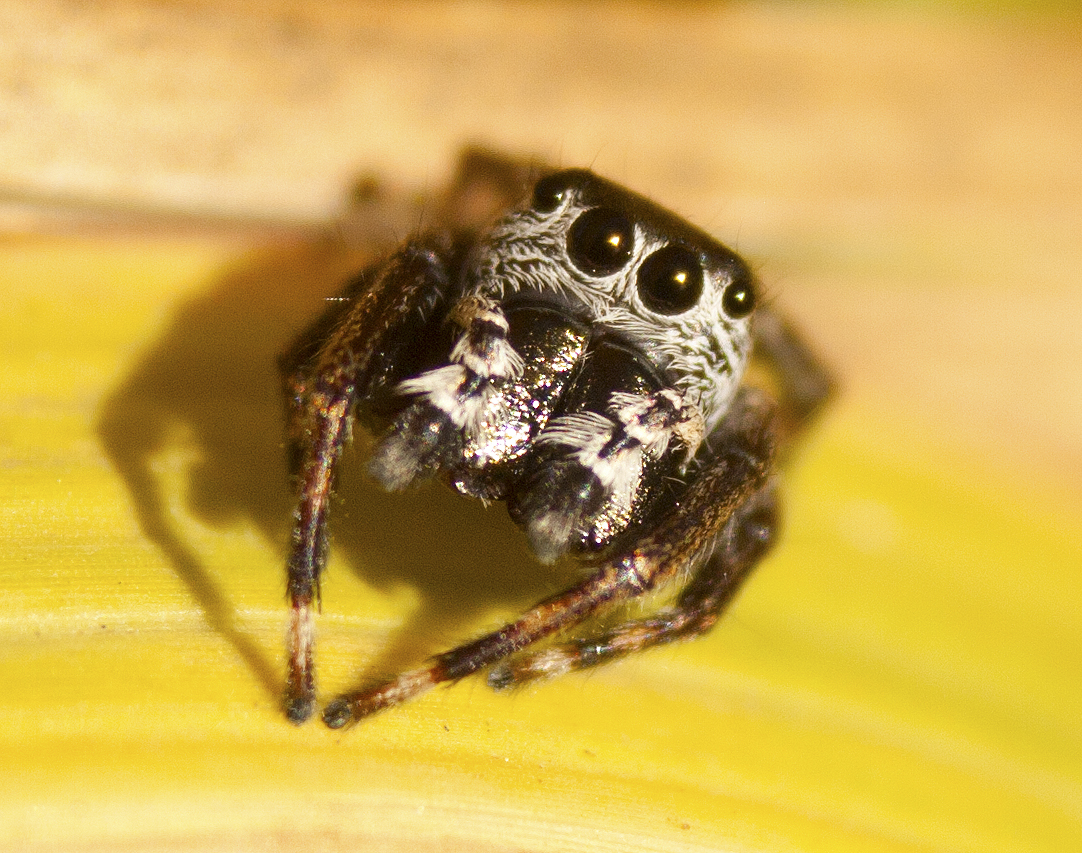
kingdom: Animalia
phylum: Arthropoda
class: Arachnida
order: Araneae
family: Salticidae
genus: Euryattus
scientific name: Euryattus bleekeri
